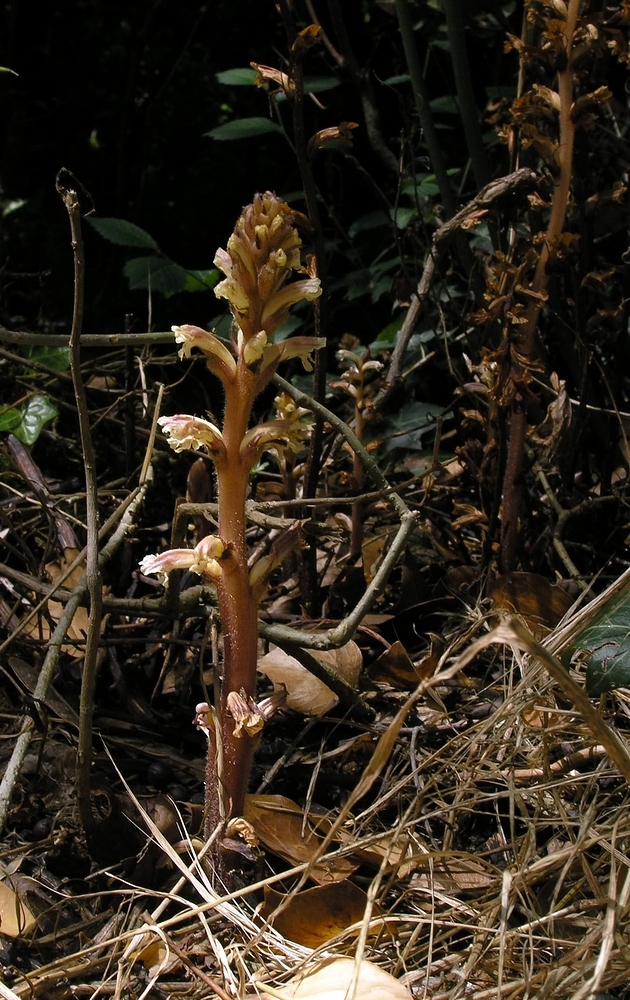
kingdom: Plantae
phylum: Tracheophyta
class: Magnoliopsida
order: Lamiales
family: Orobanchaceae
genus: Orobanche
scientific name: Orobanche hederae
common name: Ivy broomrape
